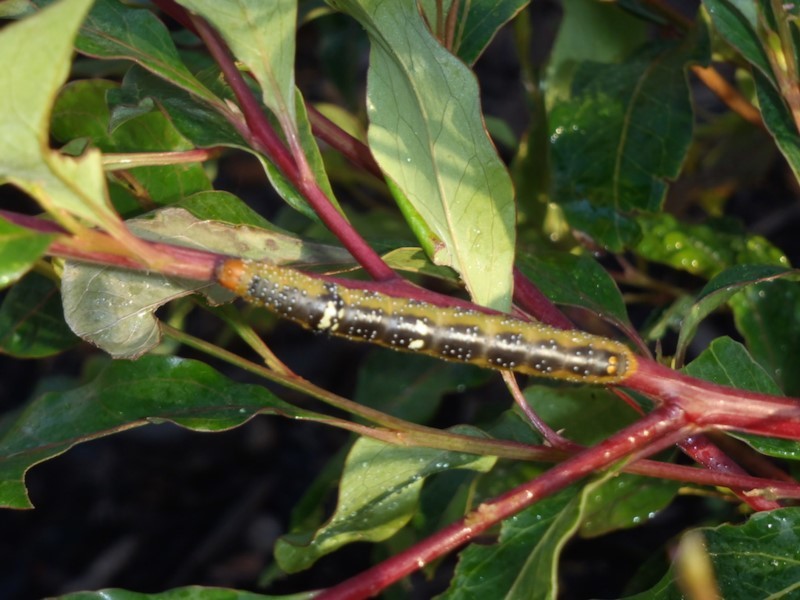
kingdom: Animalia
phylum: Arthropoda
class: Insecta
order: Lepidoptera
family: Geometridae
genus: Oenochroma
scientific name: Oenochroma vinaria
